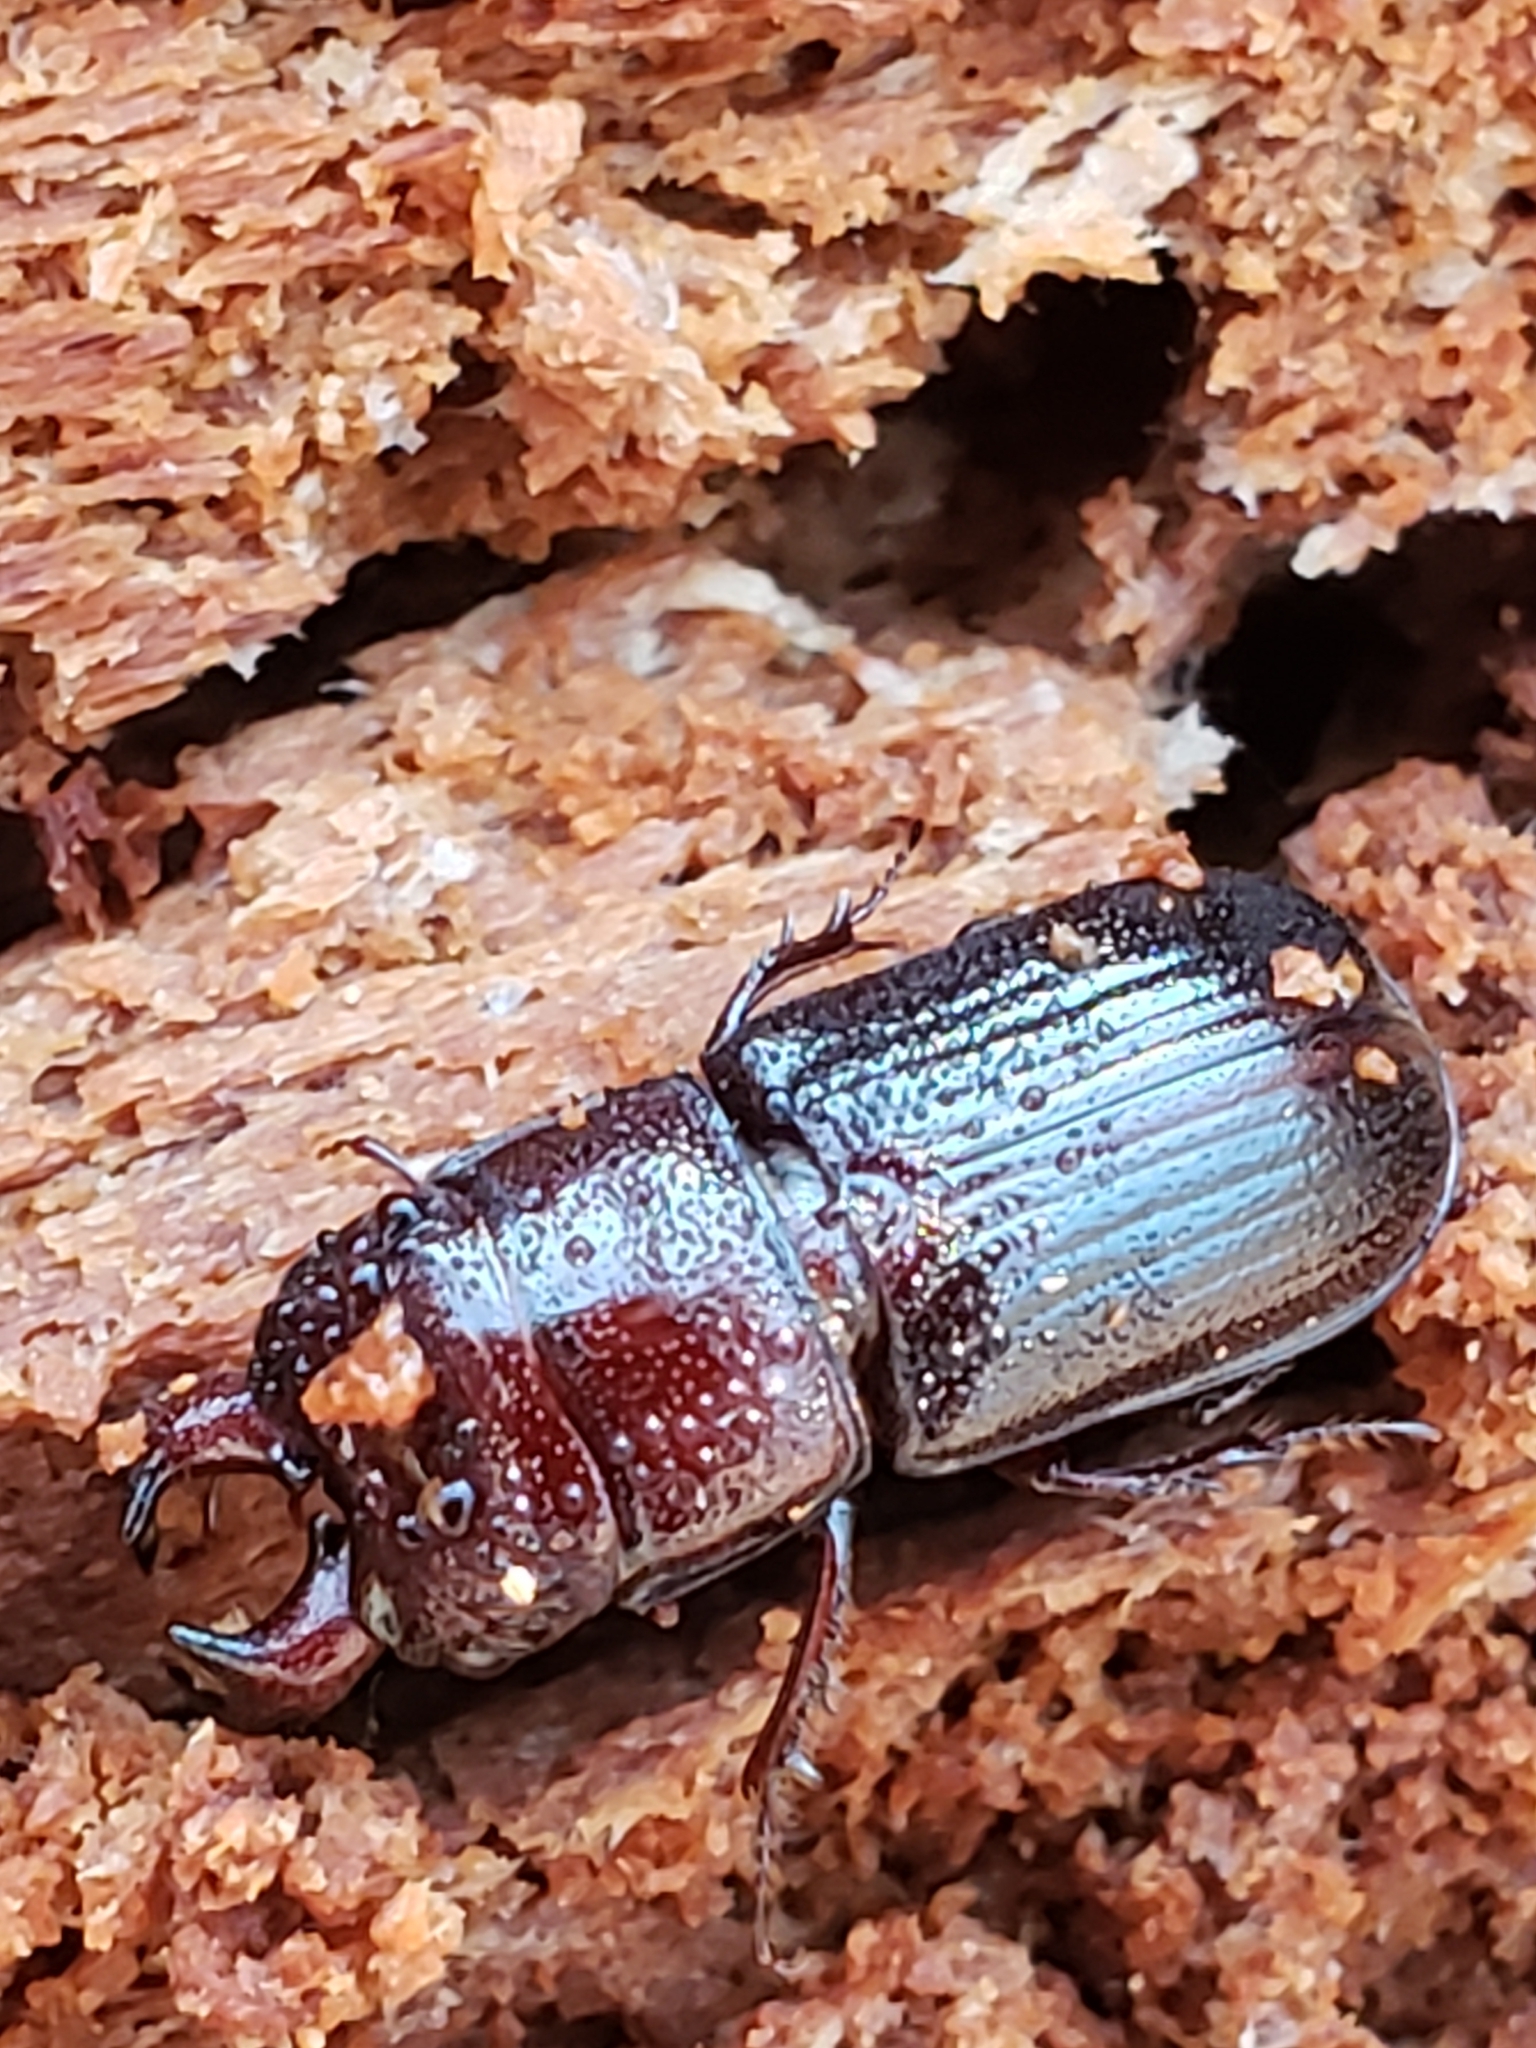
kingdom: Animalia
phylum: Arthropoda
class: Insecta
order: Coleoptera
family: Lucanidae
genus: Ceruchus
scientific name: Ceruchus piceus
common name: Red-rot decay stag beetle
